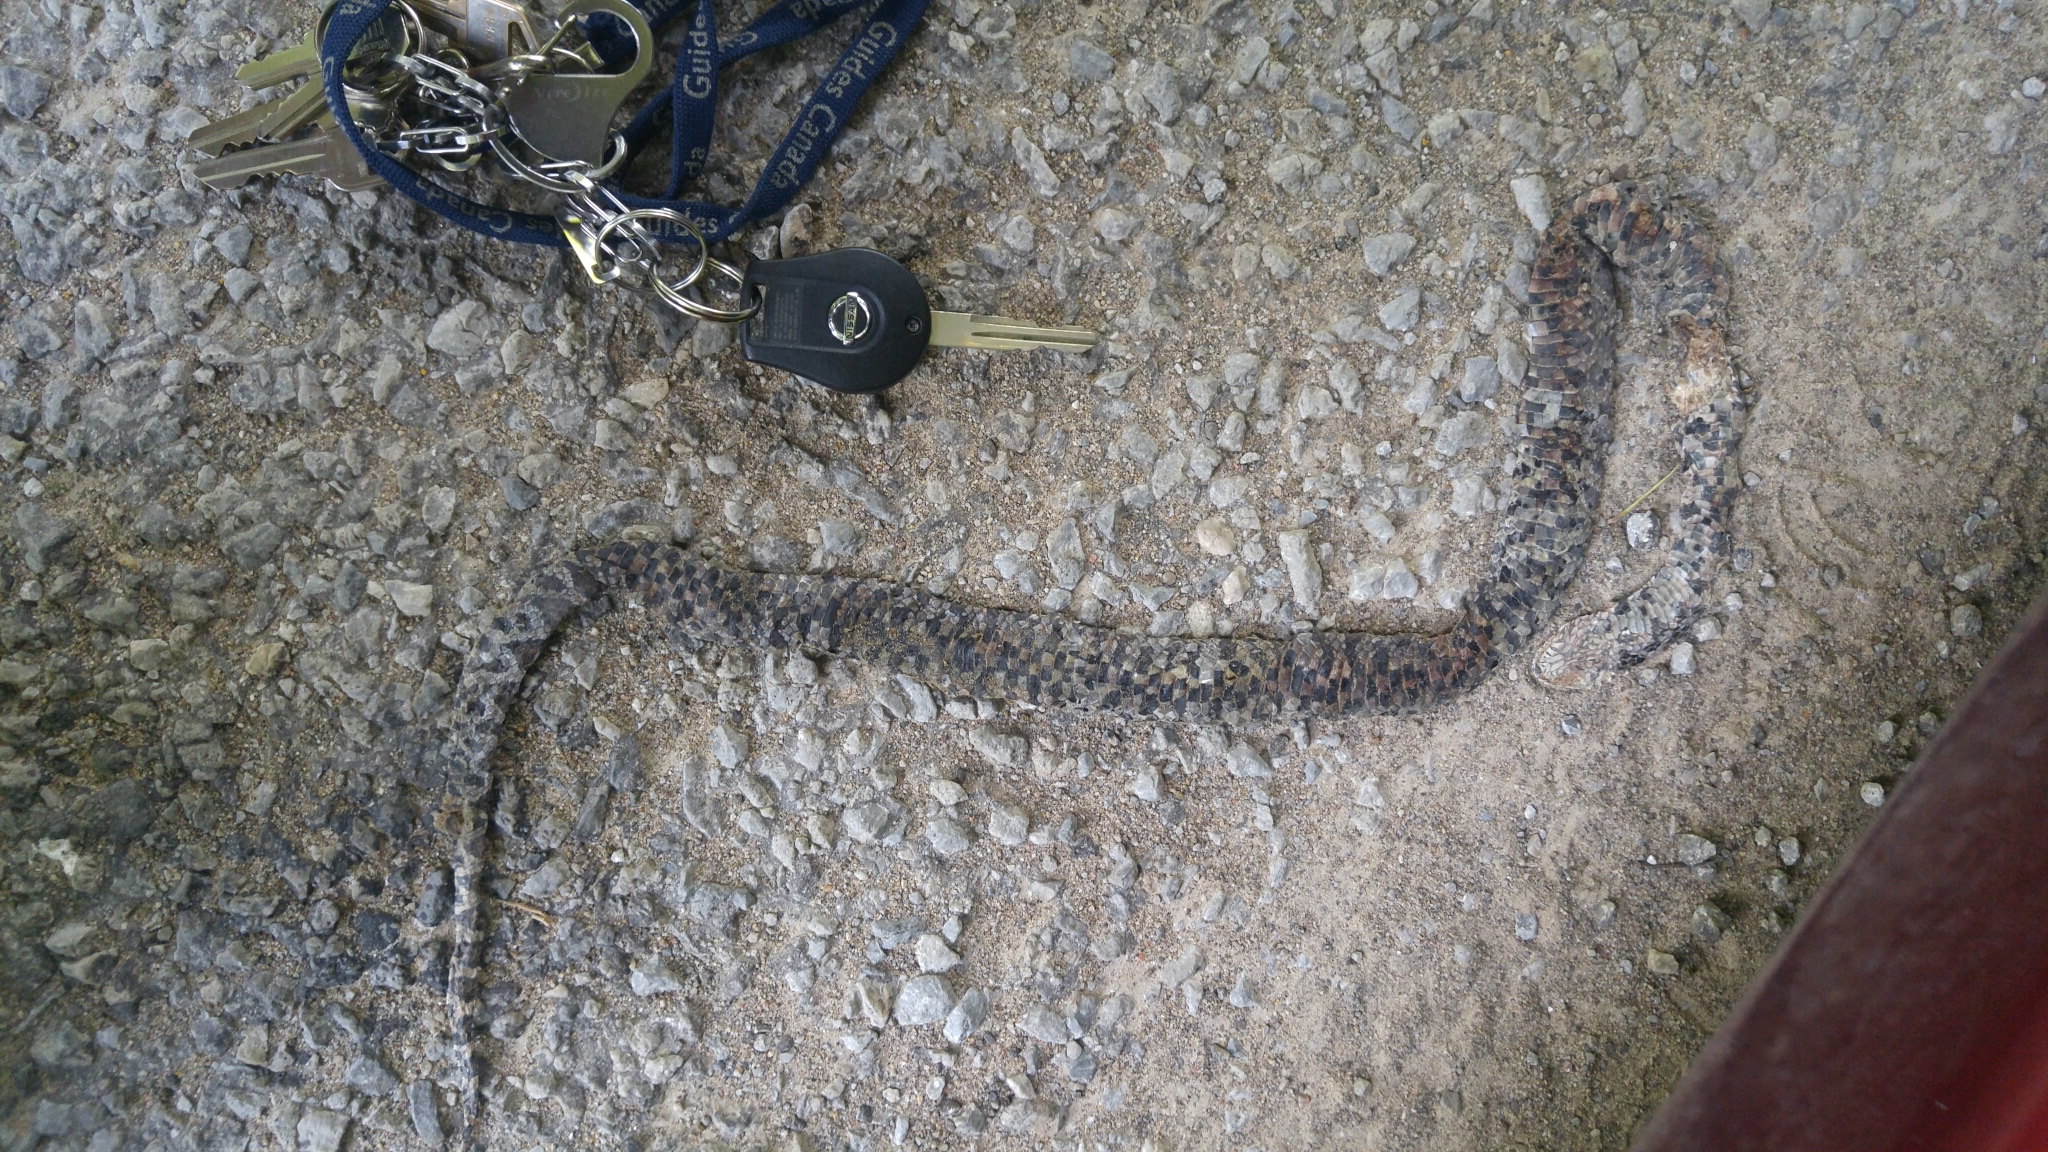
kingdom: Animalia
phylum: Chordata
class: Squamata
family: Colubridae
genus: Lampropeltis
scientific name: Lampropeltis triangulum
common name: Eastern milksnake
